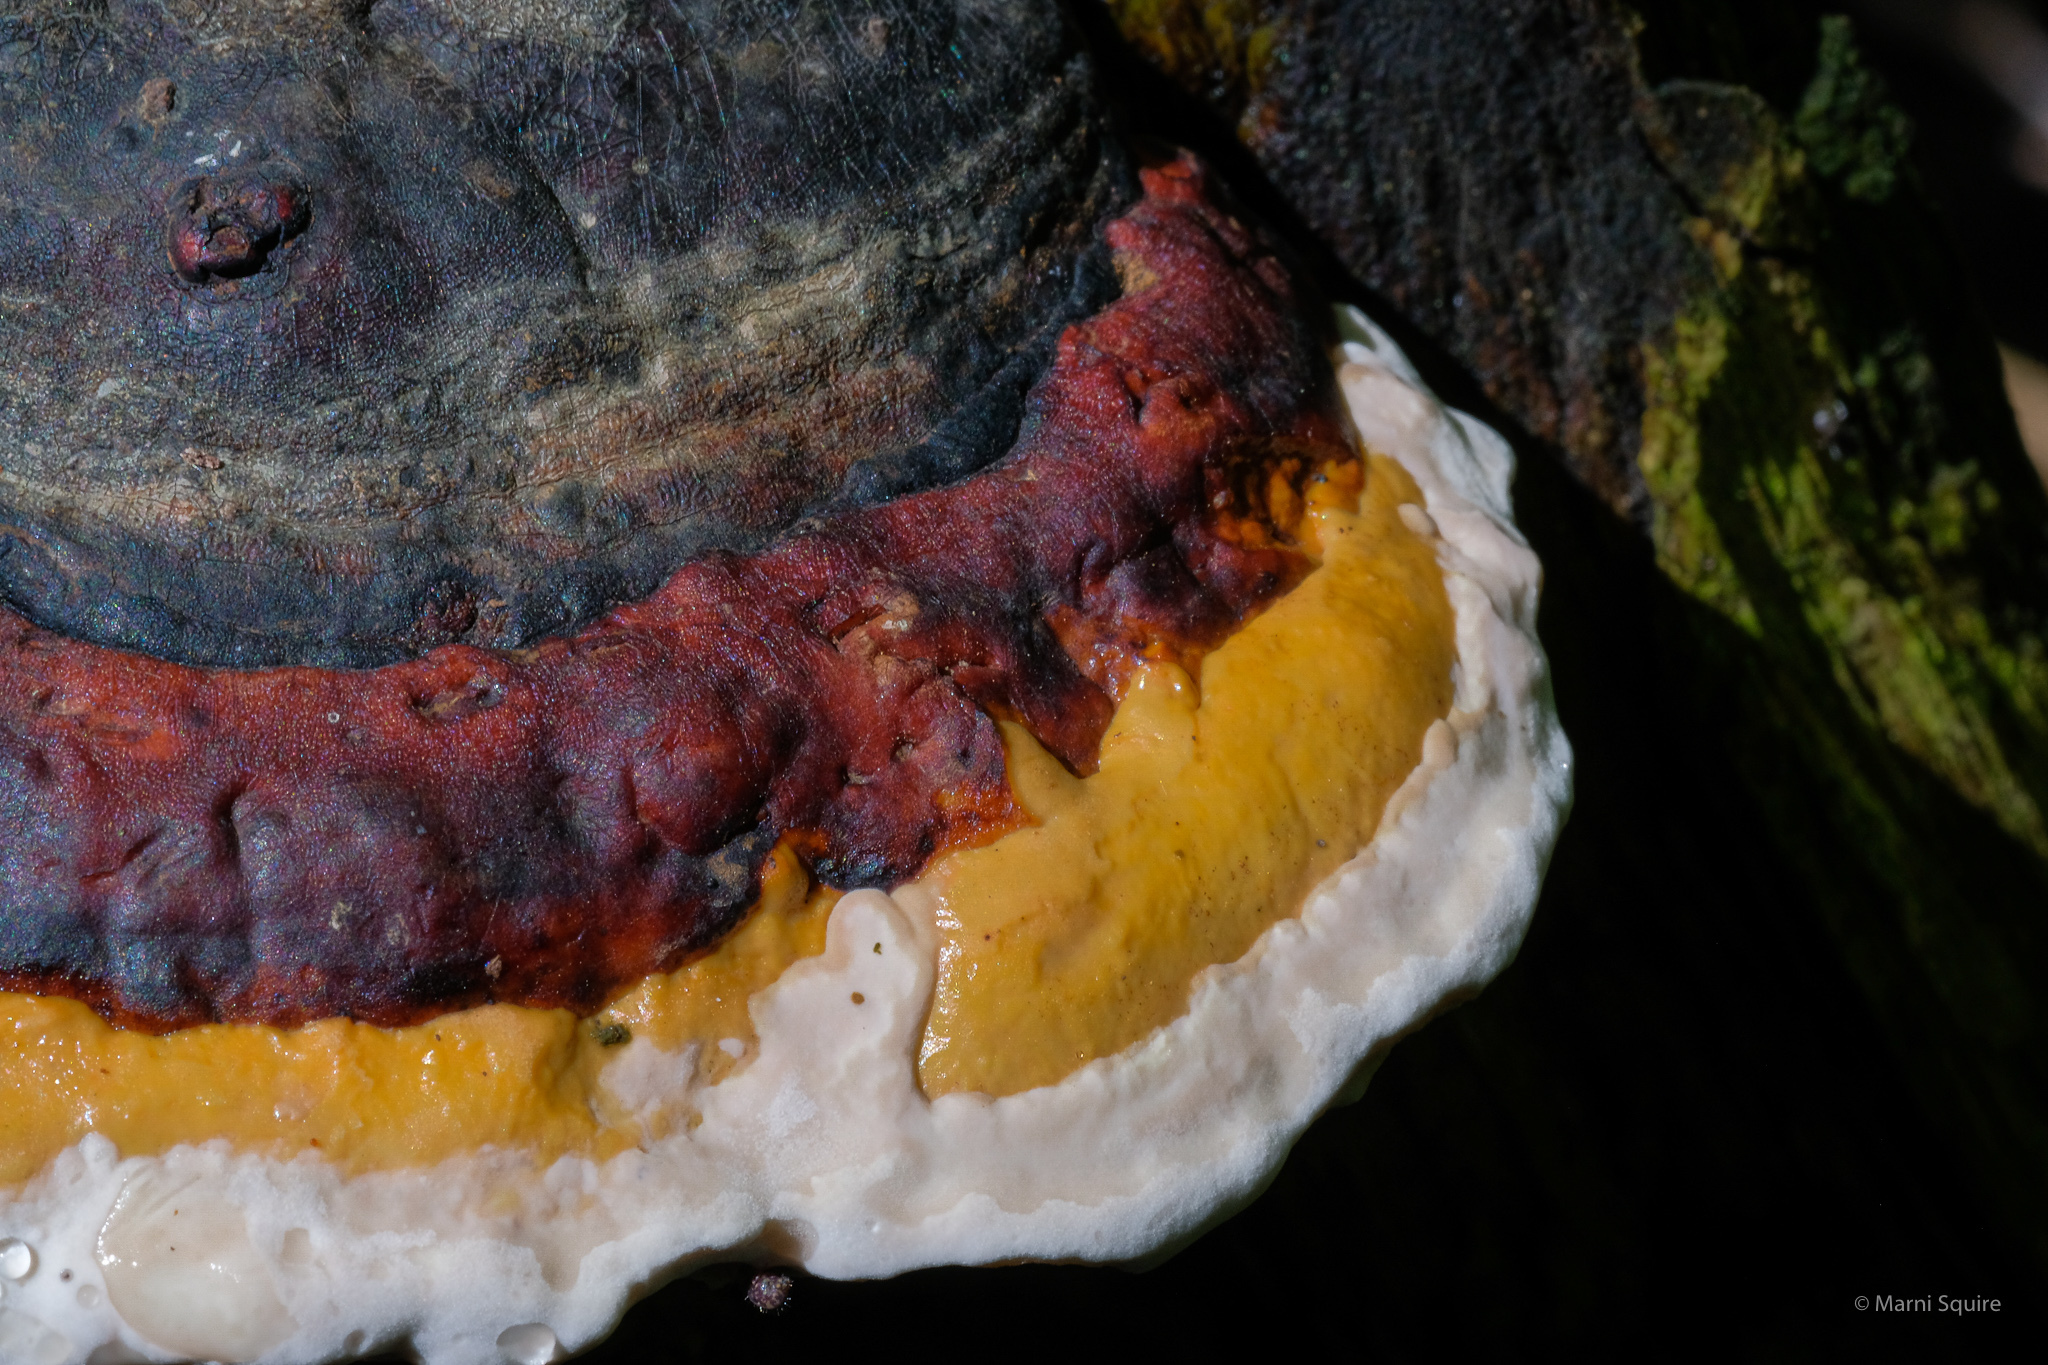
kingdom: Fungi
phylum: Basidiomycota
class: Agaricomycetes
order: Polyporales
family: Fomitopsidaceae
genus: Fomitopsis
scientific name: Fomitopsis mounceae
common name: Northern red belt
